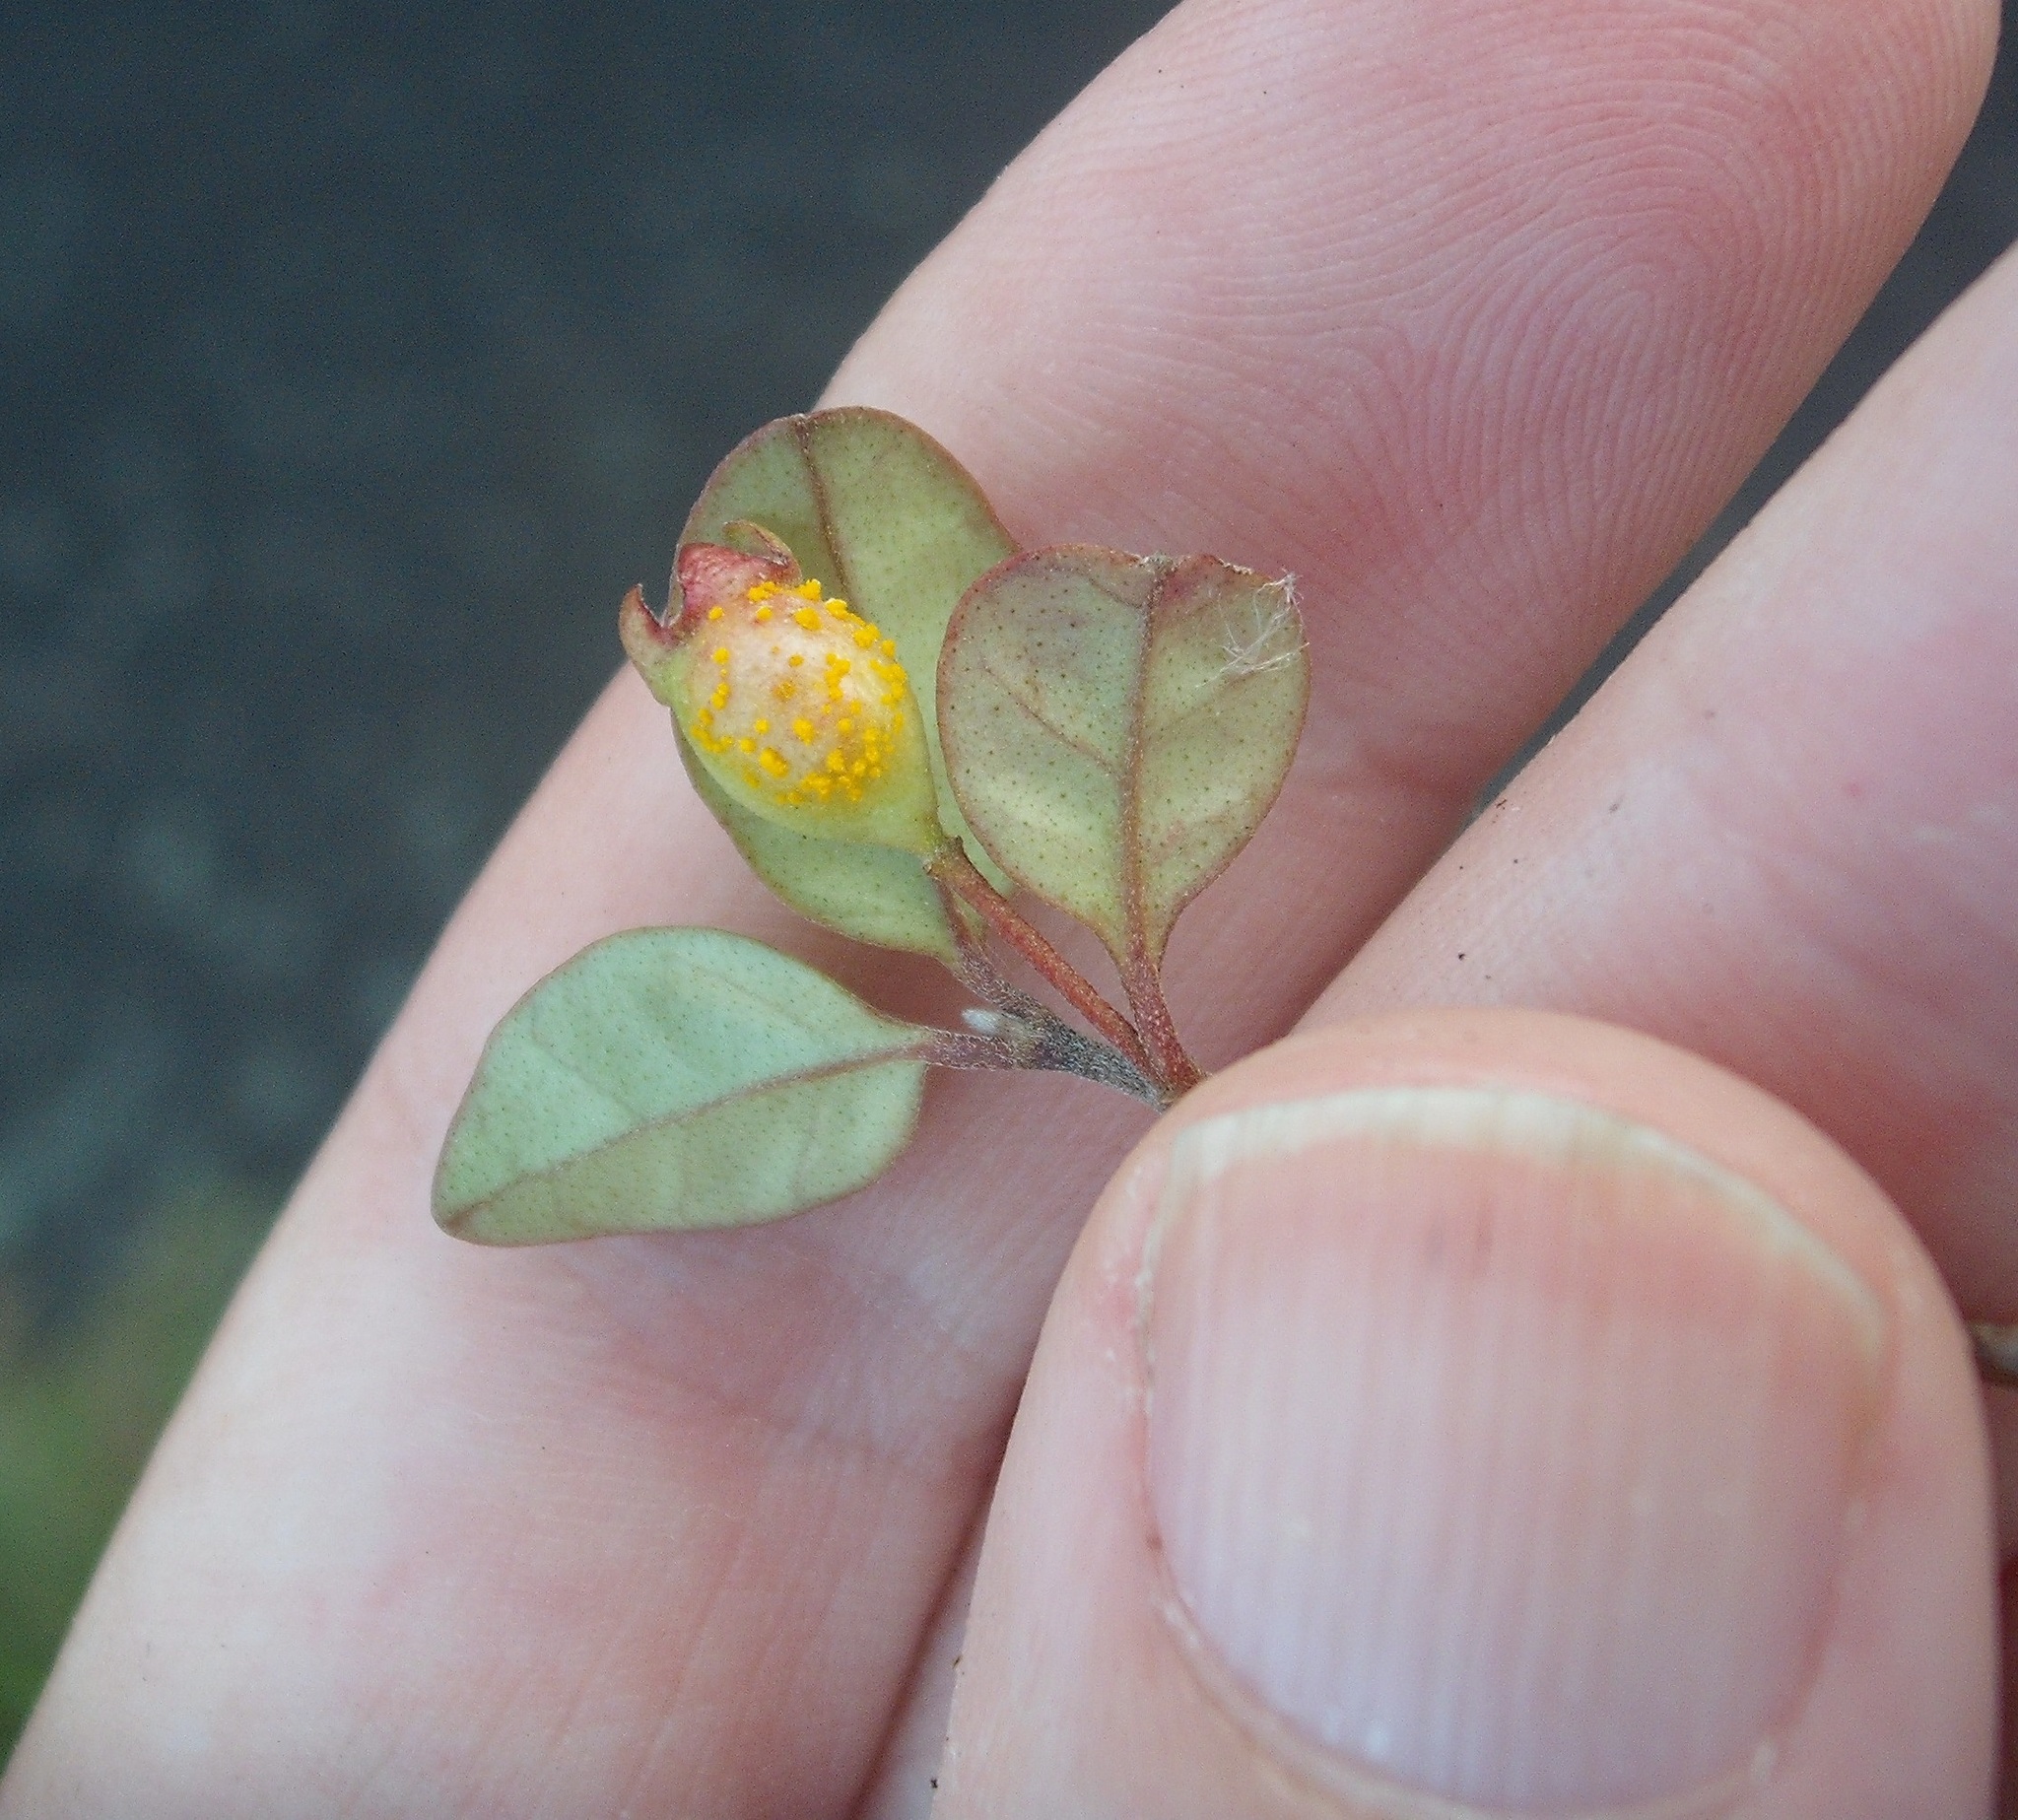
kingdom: Fungi
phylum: Basidiomycota
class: Pucciniomycetes
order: Pucciniales
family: Sphaerophragmiaceae
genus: Austropuccinia
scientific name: Austropuccinia psidii
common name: Myrtle rust
